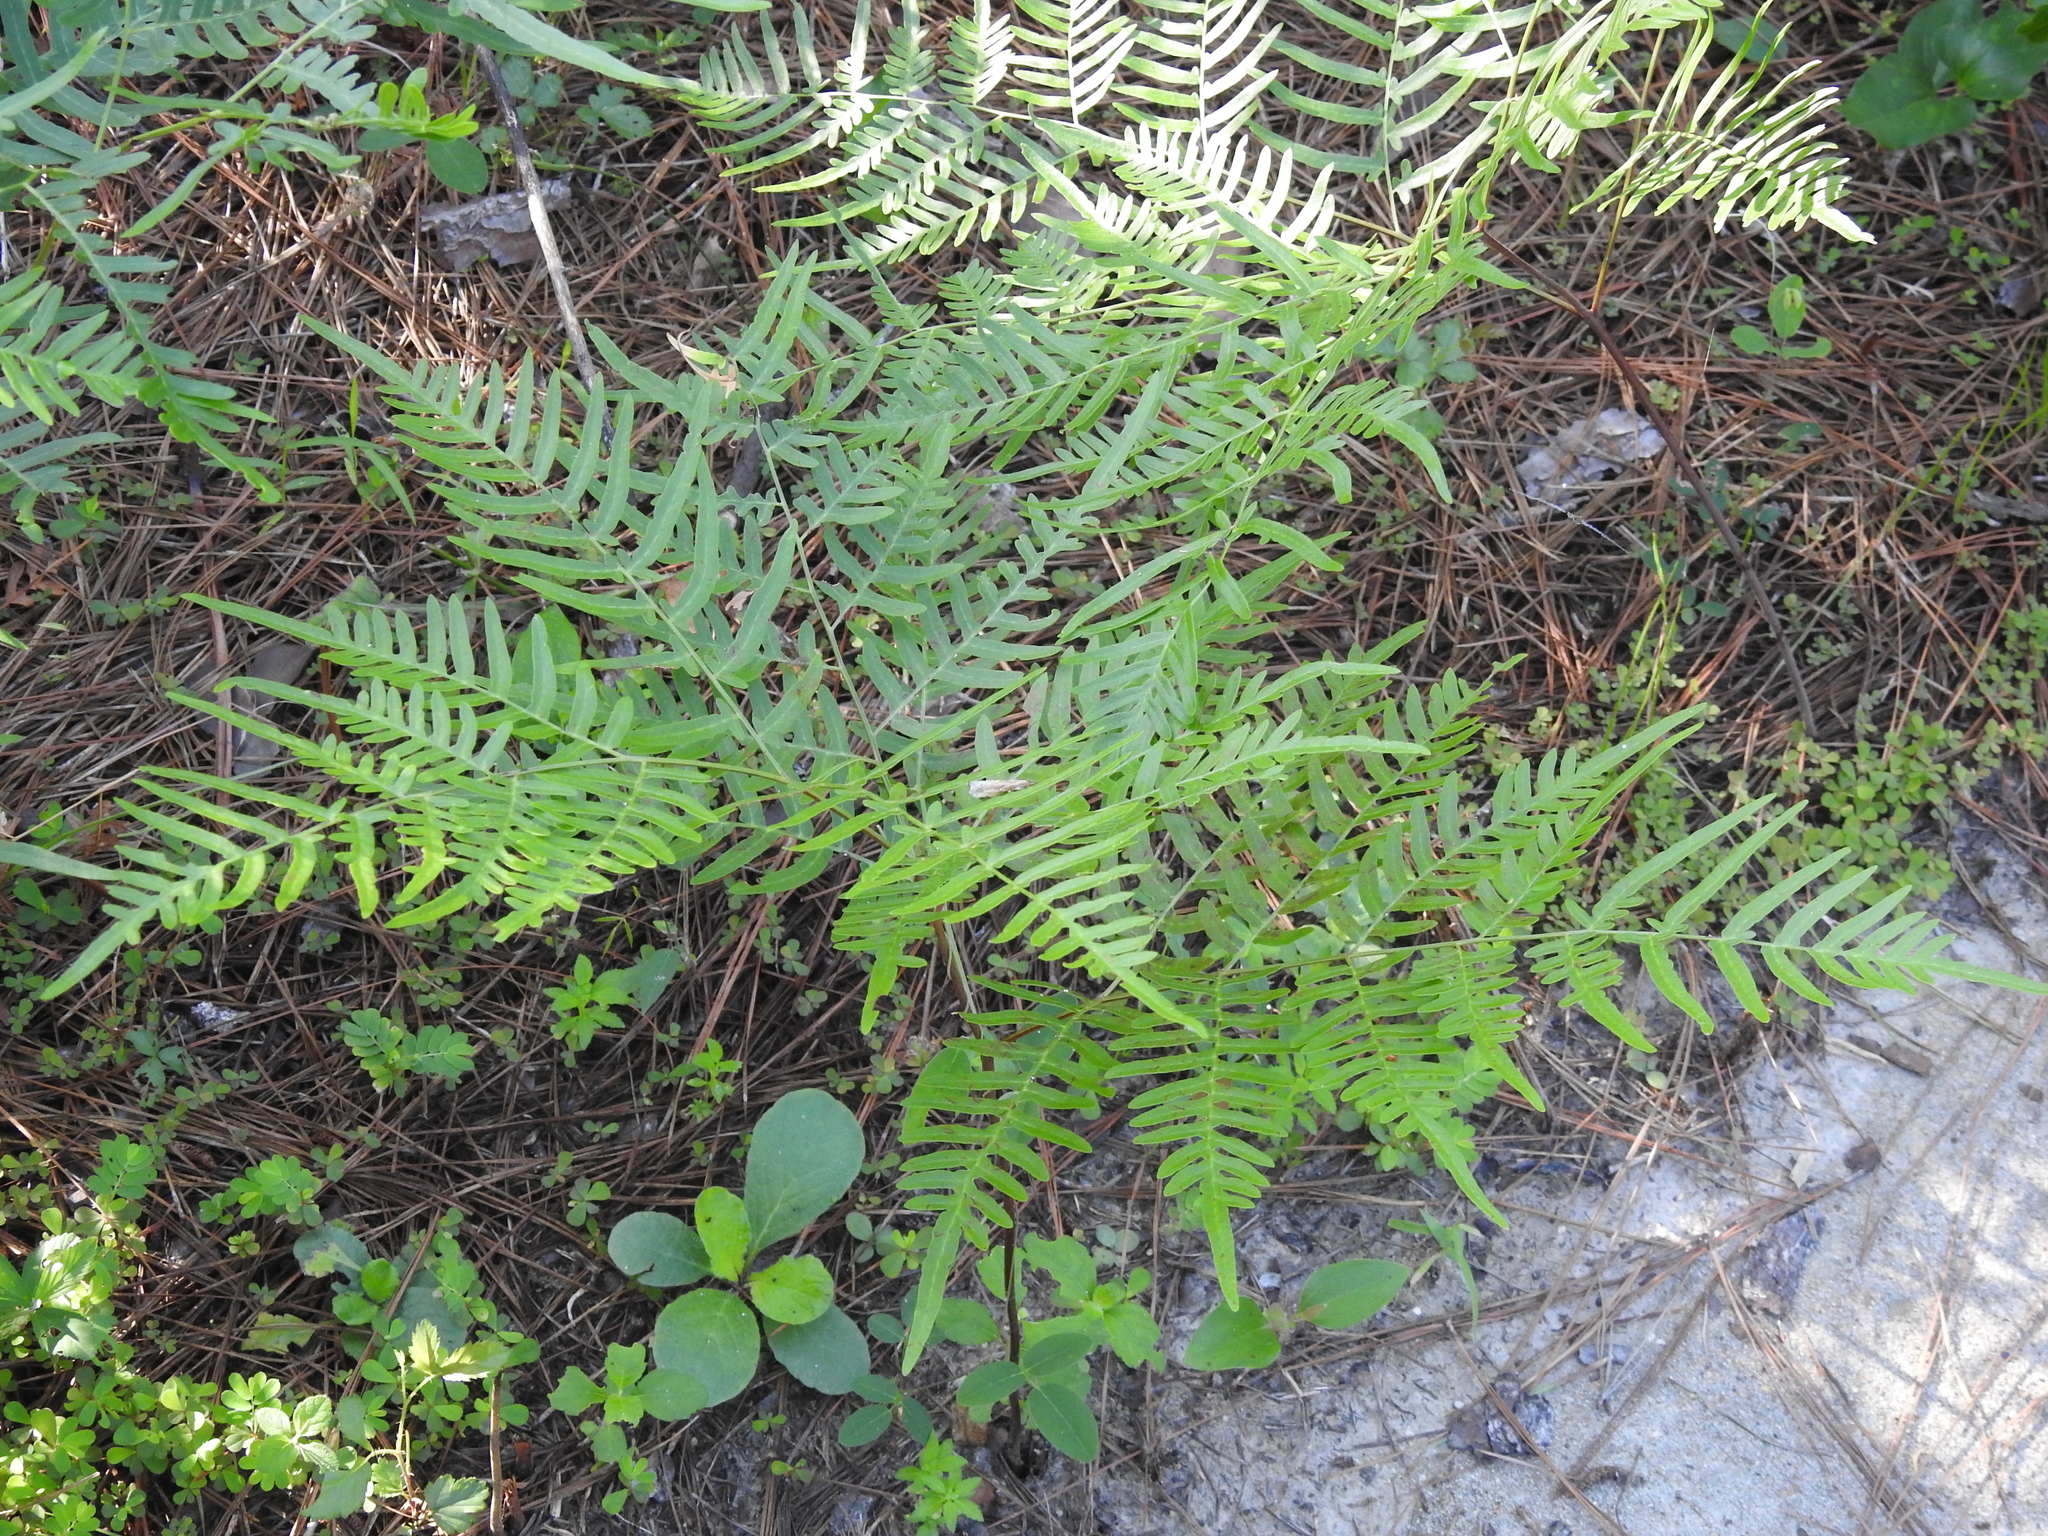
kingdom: Plantae
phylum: Tracheophyta
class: Polypodiopsida
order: Polypodiales
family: Dennstaedtiaceae
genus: Pteridium
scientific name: Pteridium
